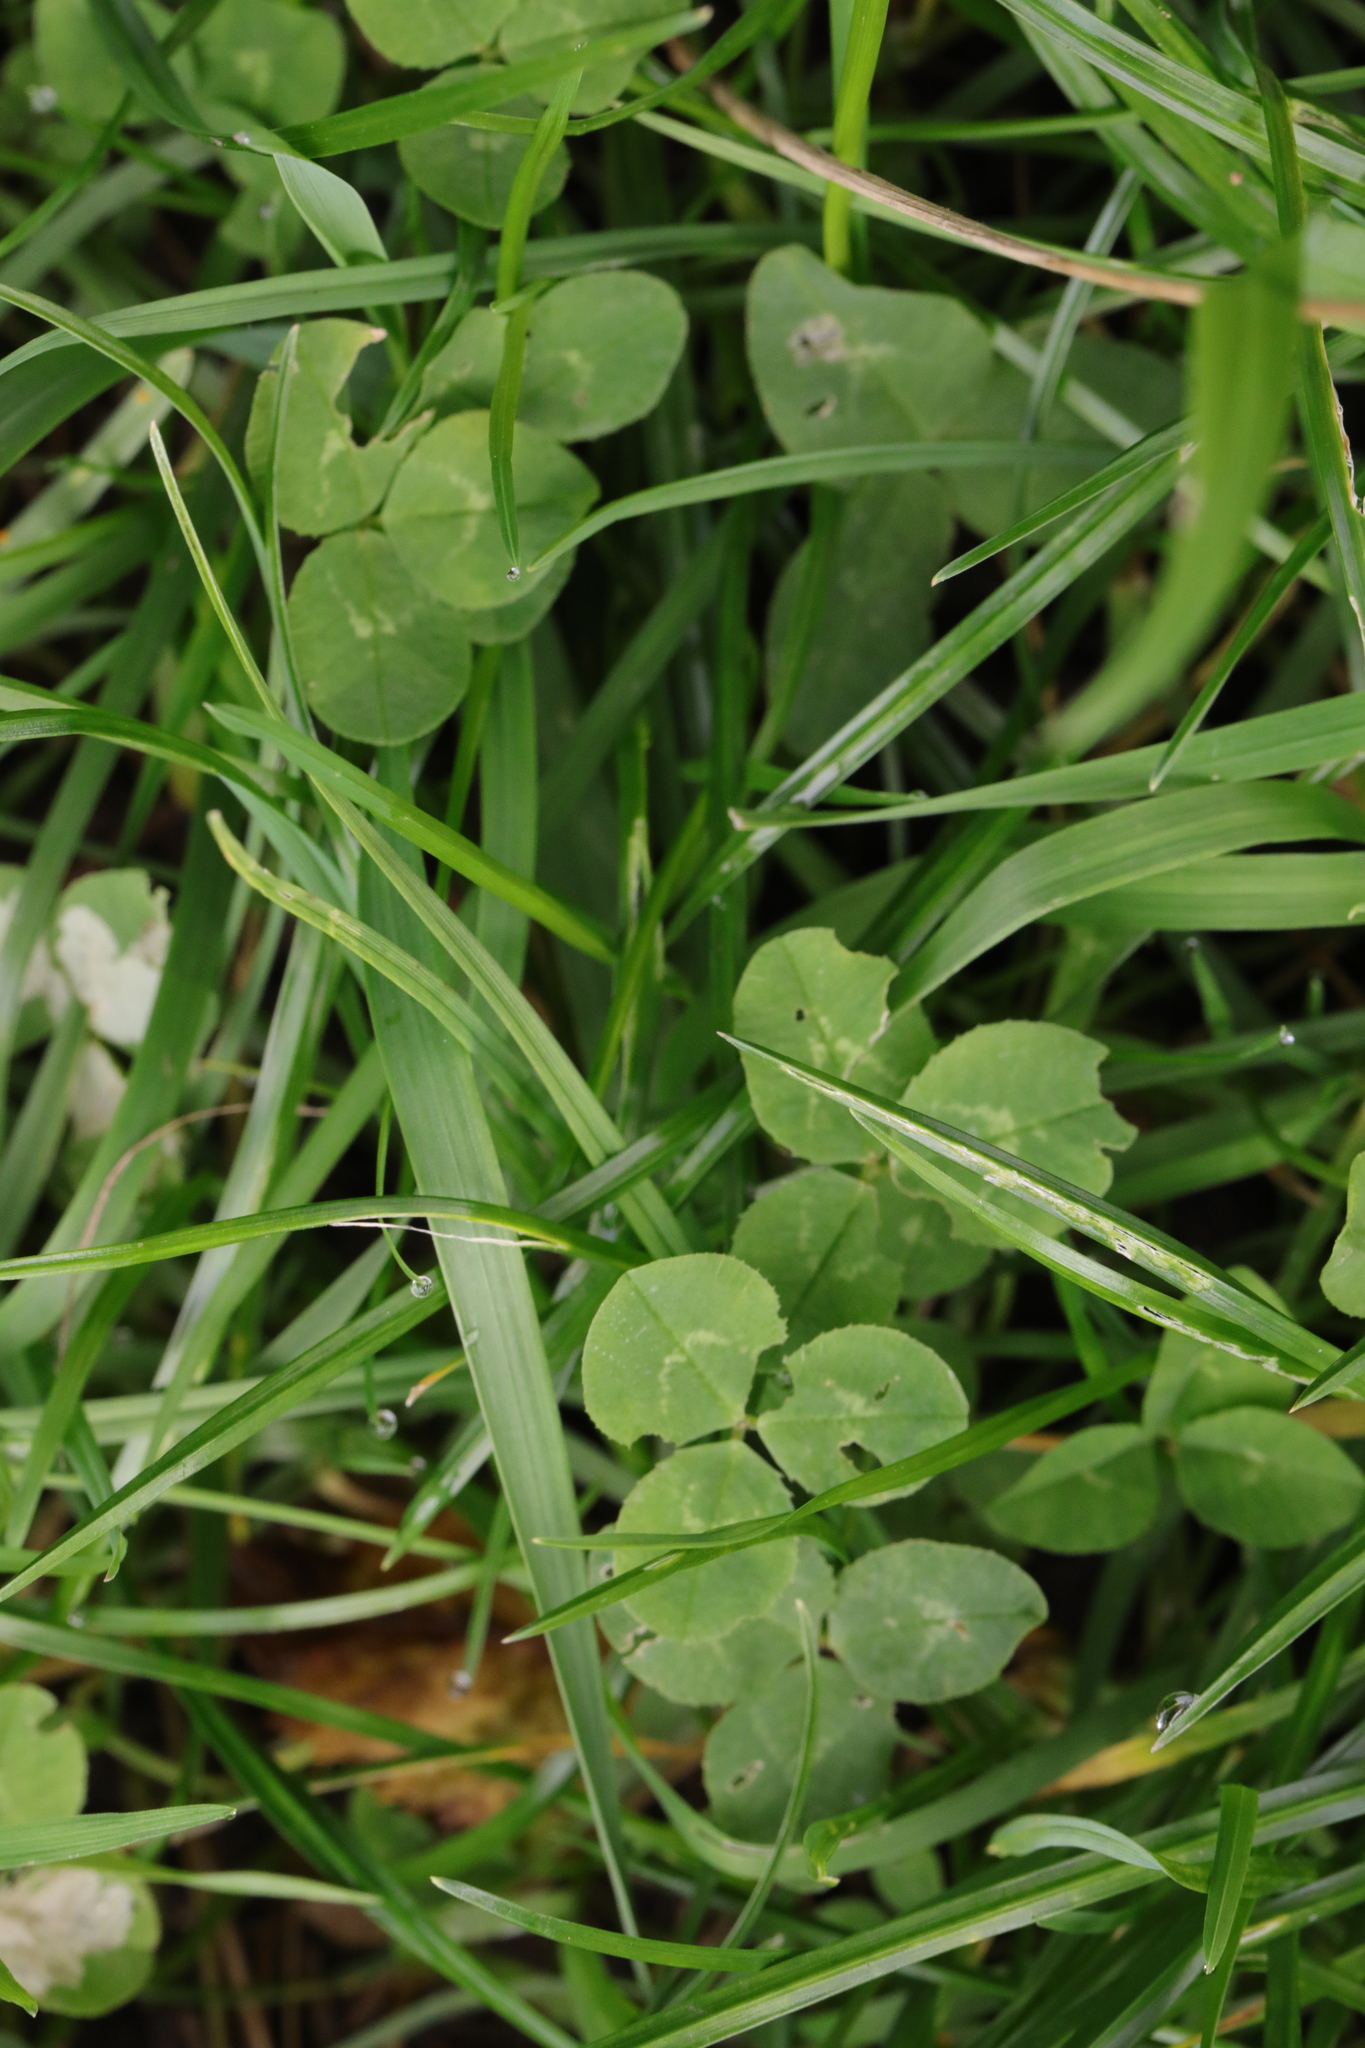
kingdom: Plantae
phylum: Tracheophyta
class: Magnoliopsida
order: Fabales
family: Fabaceae
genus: Trifolium
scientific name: Trifolium repens
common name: White clover
